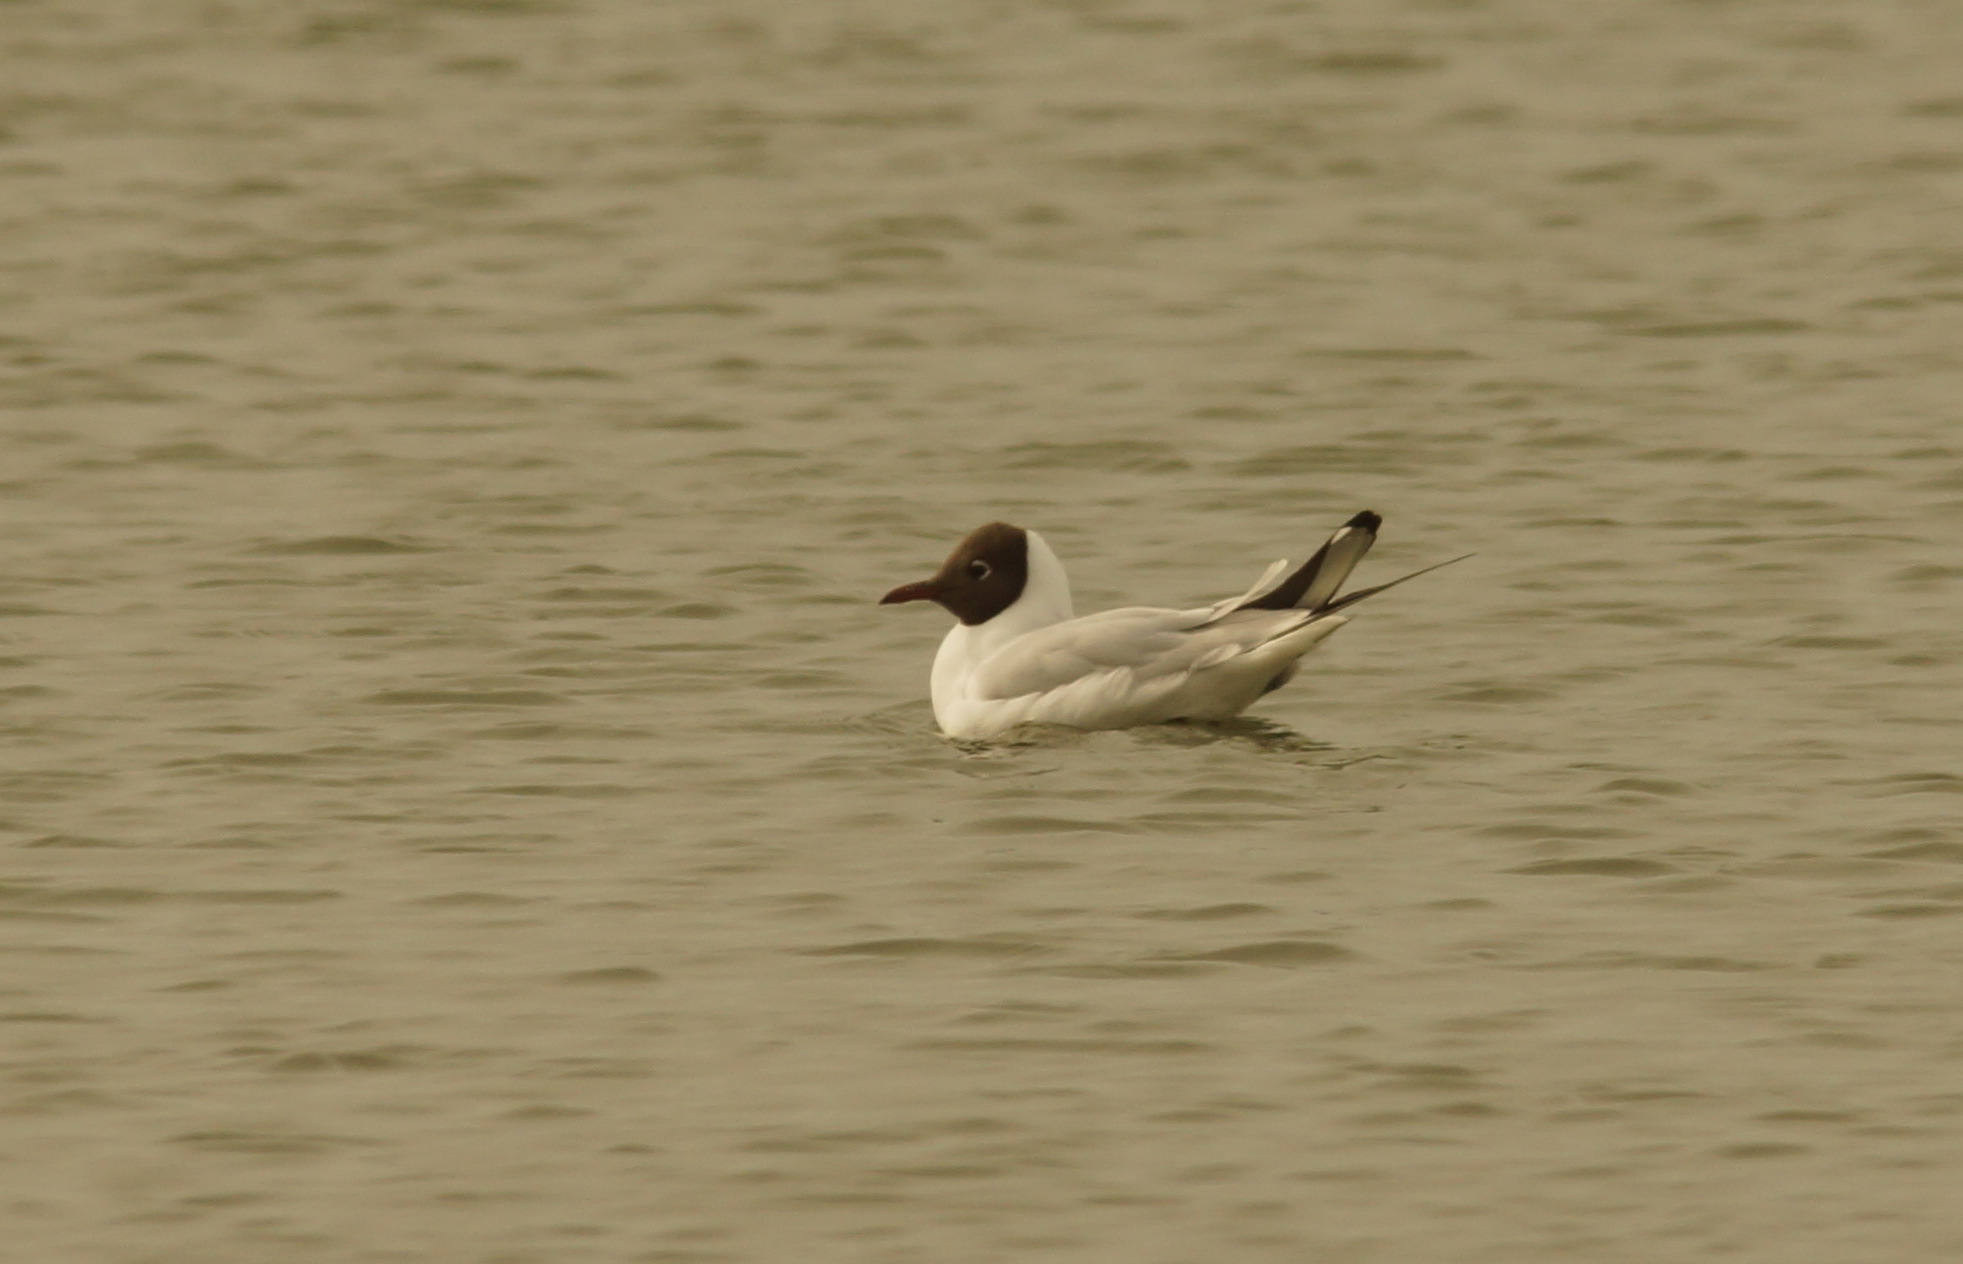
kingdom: Animalia
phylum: Chordata
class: Aves
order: Charadriiformes
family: Laridae
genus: Chroicocephalus
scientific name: Chroicocephalus ridibundus
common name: Black-headed gull
